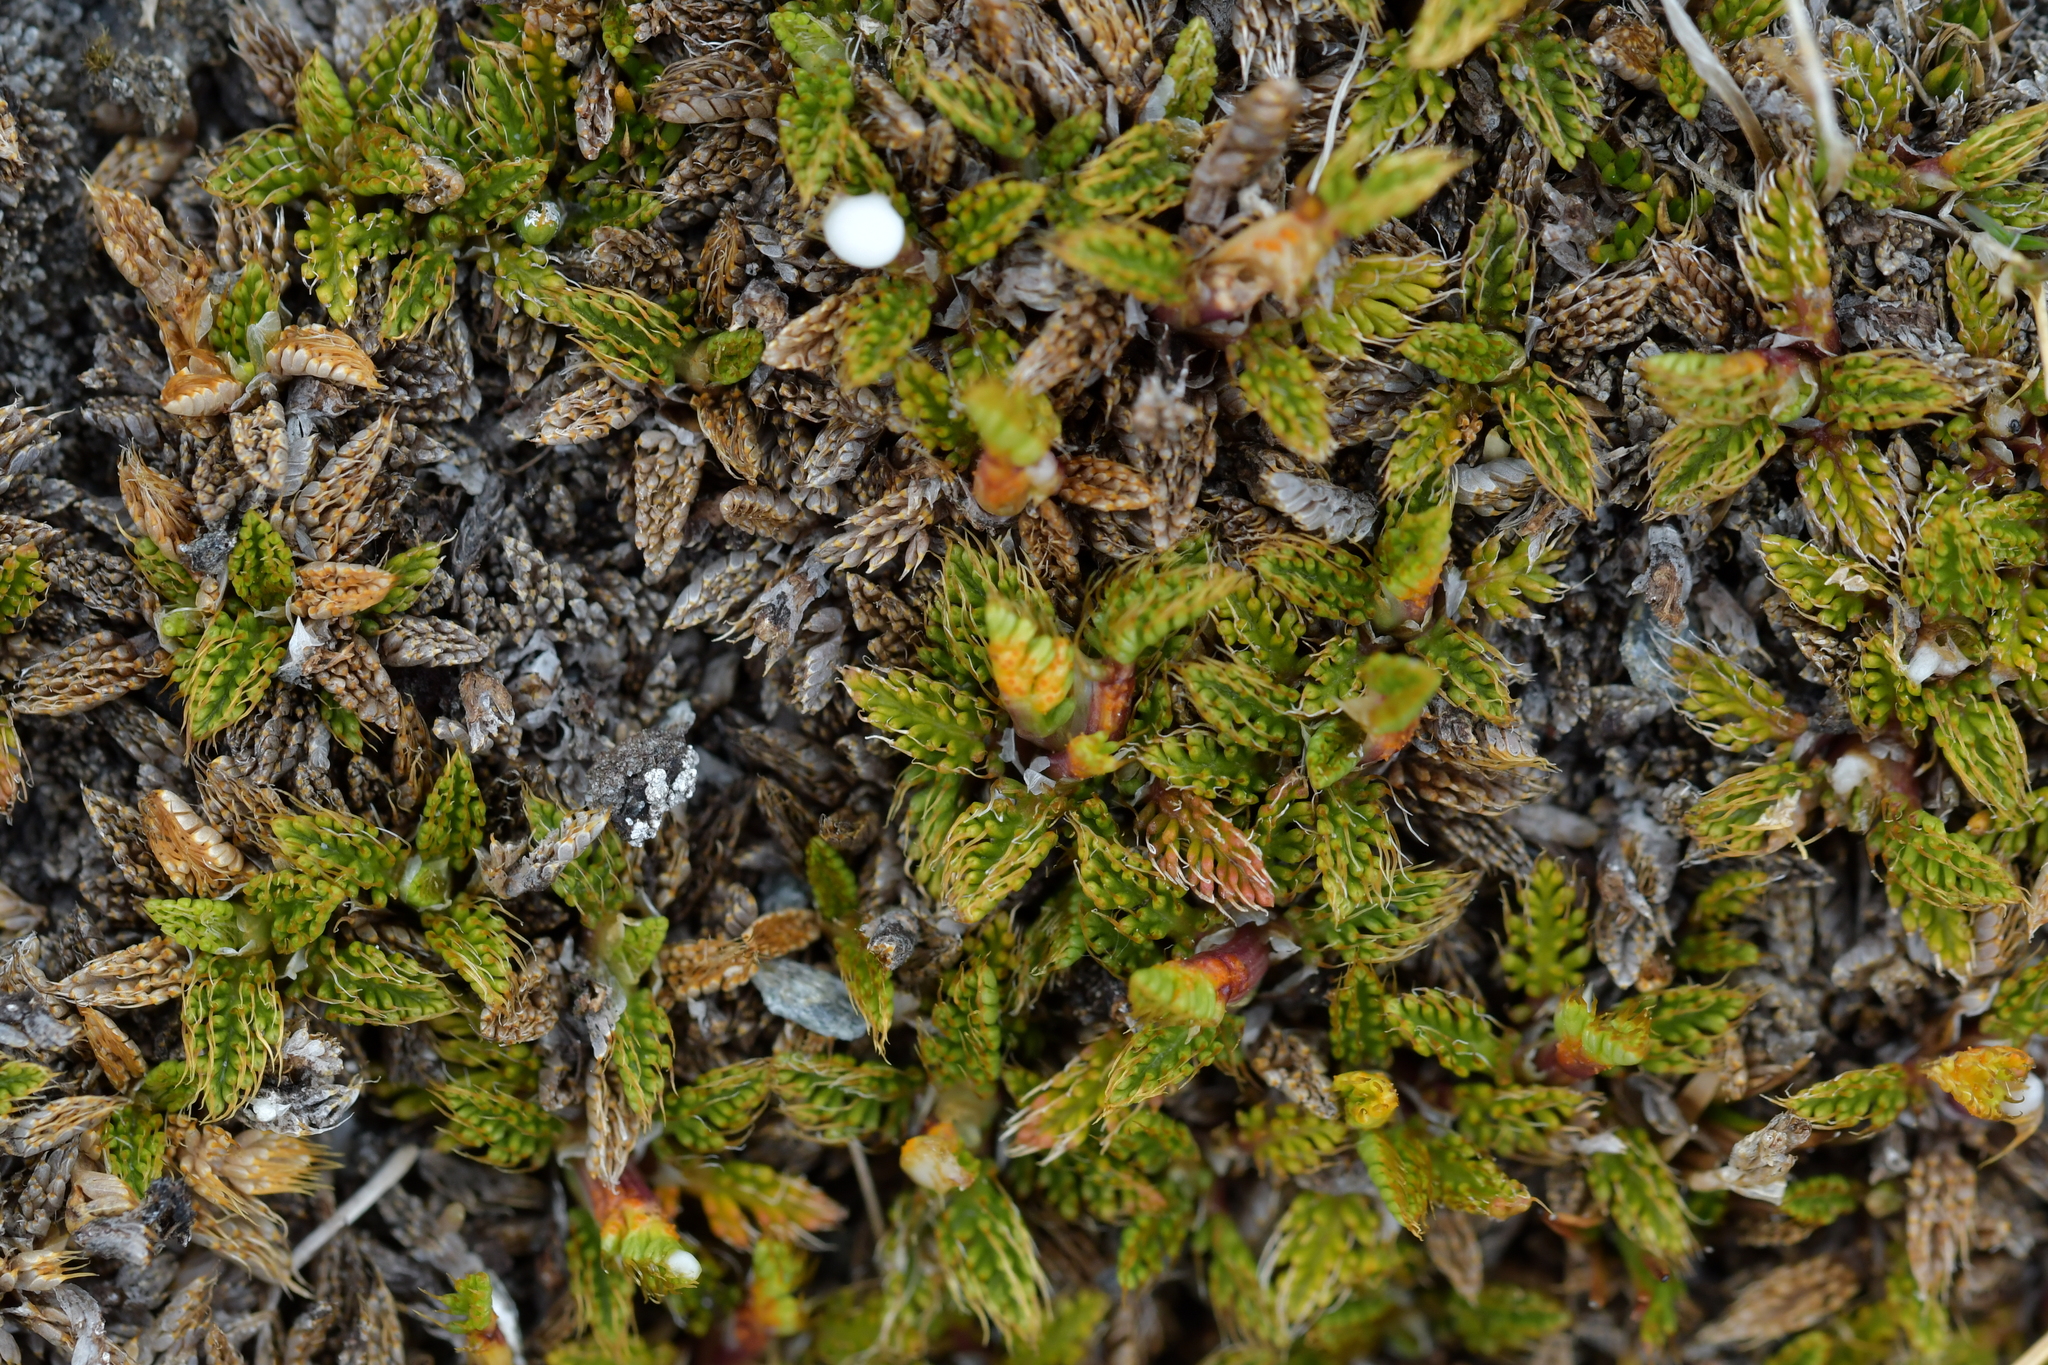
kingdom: Plantae
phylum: Tracheophyta
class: Magnoliopsida
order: Apiales
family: Apiaceae
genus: Anisotome
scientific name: Anisotome imbricata
